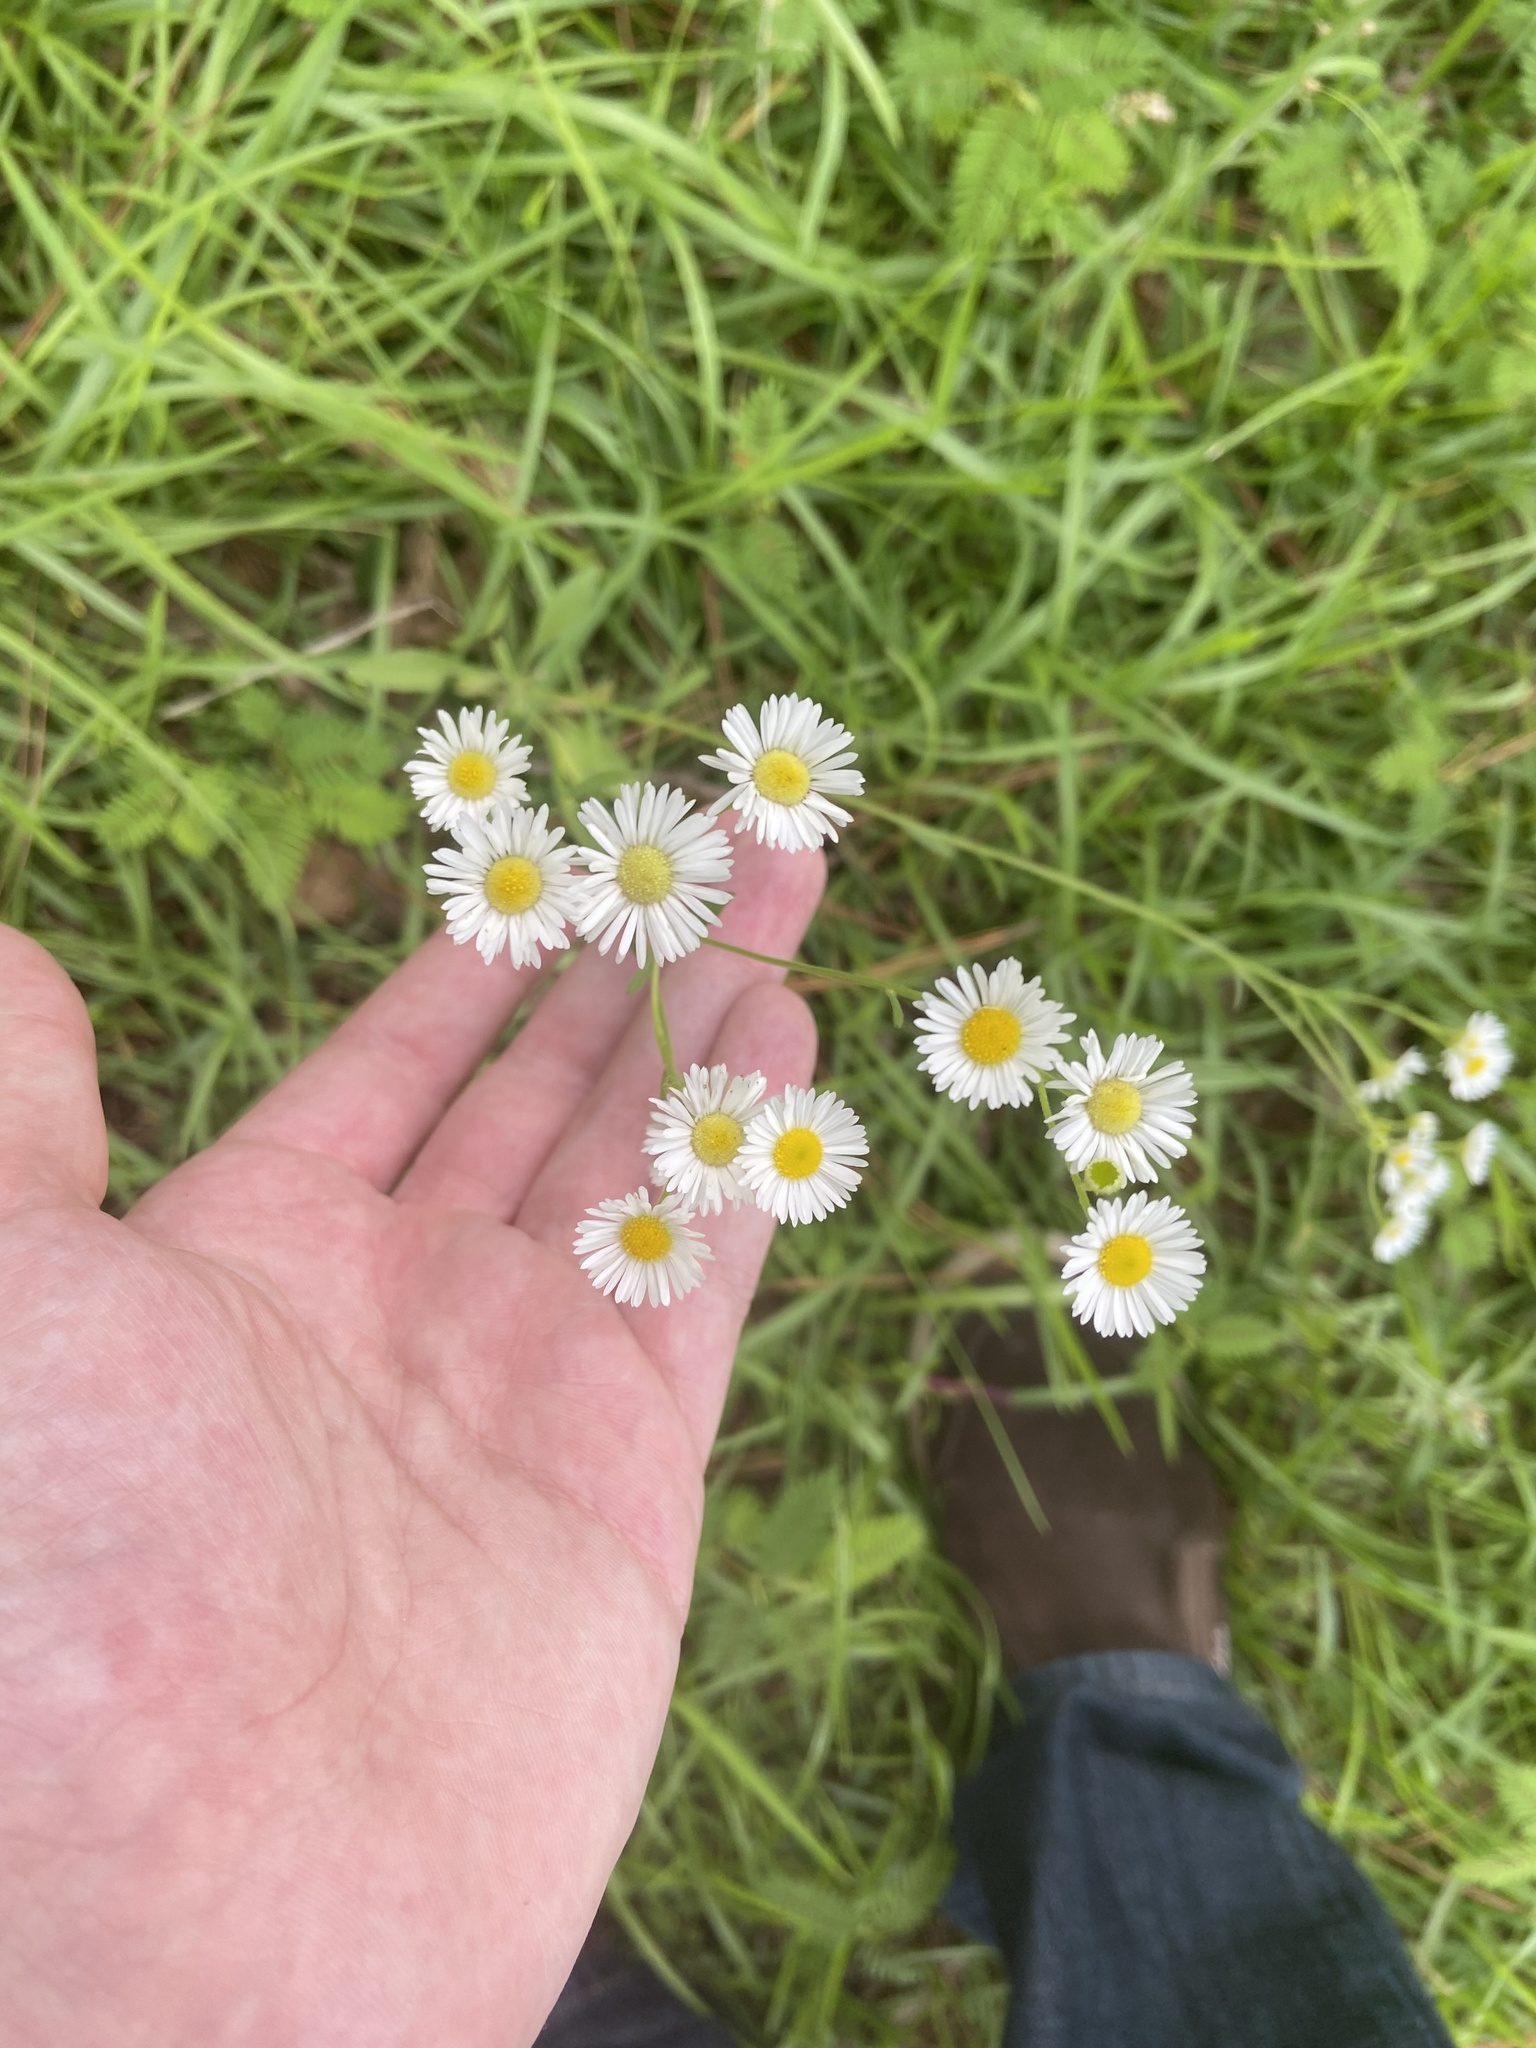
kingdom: Plantae
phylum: Tracheophyta
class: Magnoliopsida
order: Asterales
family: Asteraceae
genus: Erigeron
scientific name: Erigeron strigosus
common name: Common eastern fleabane
